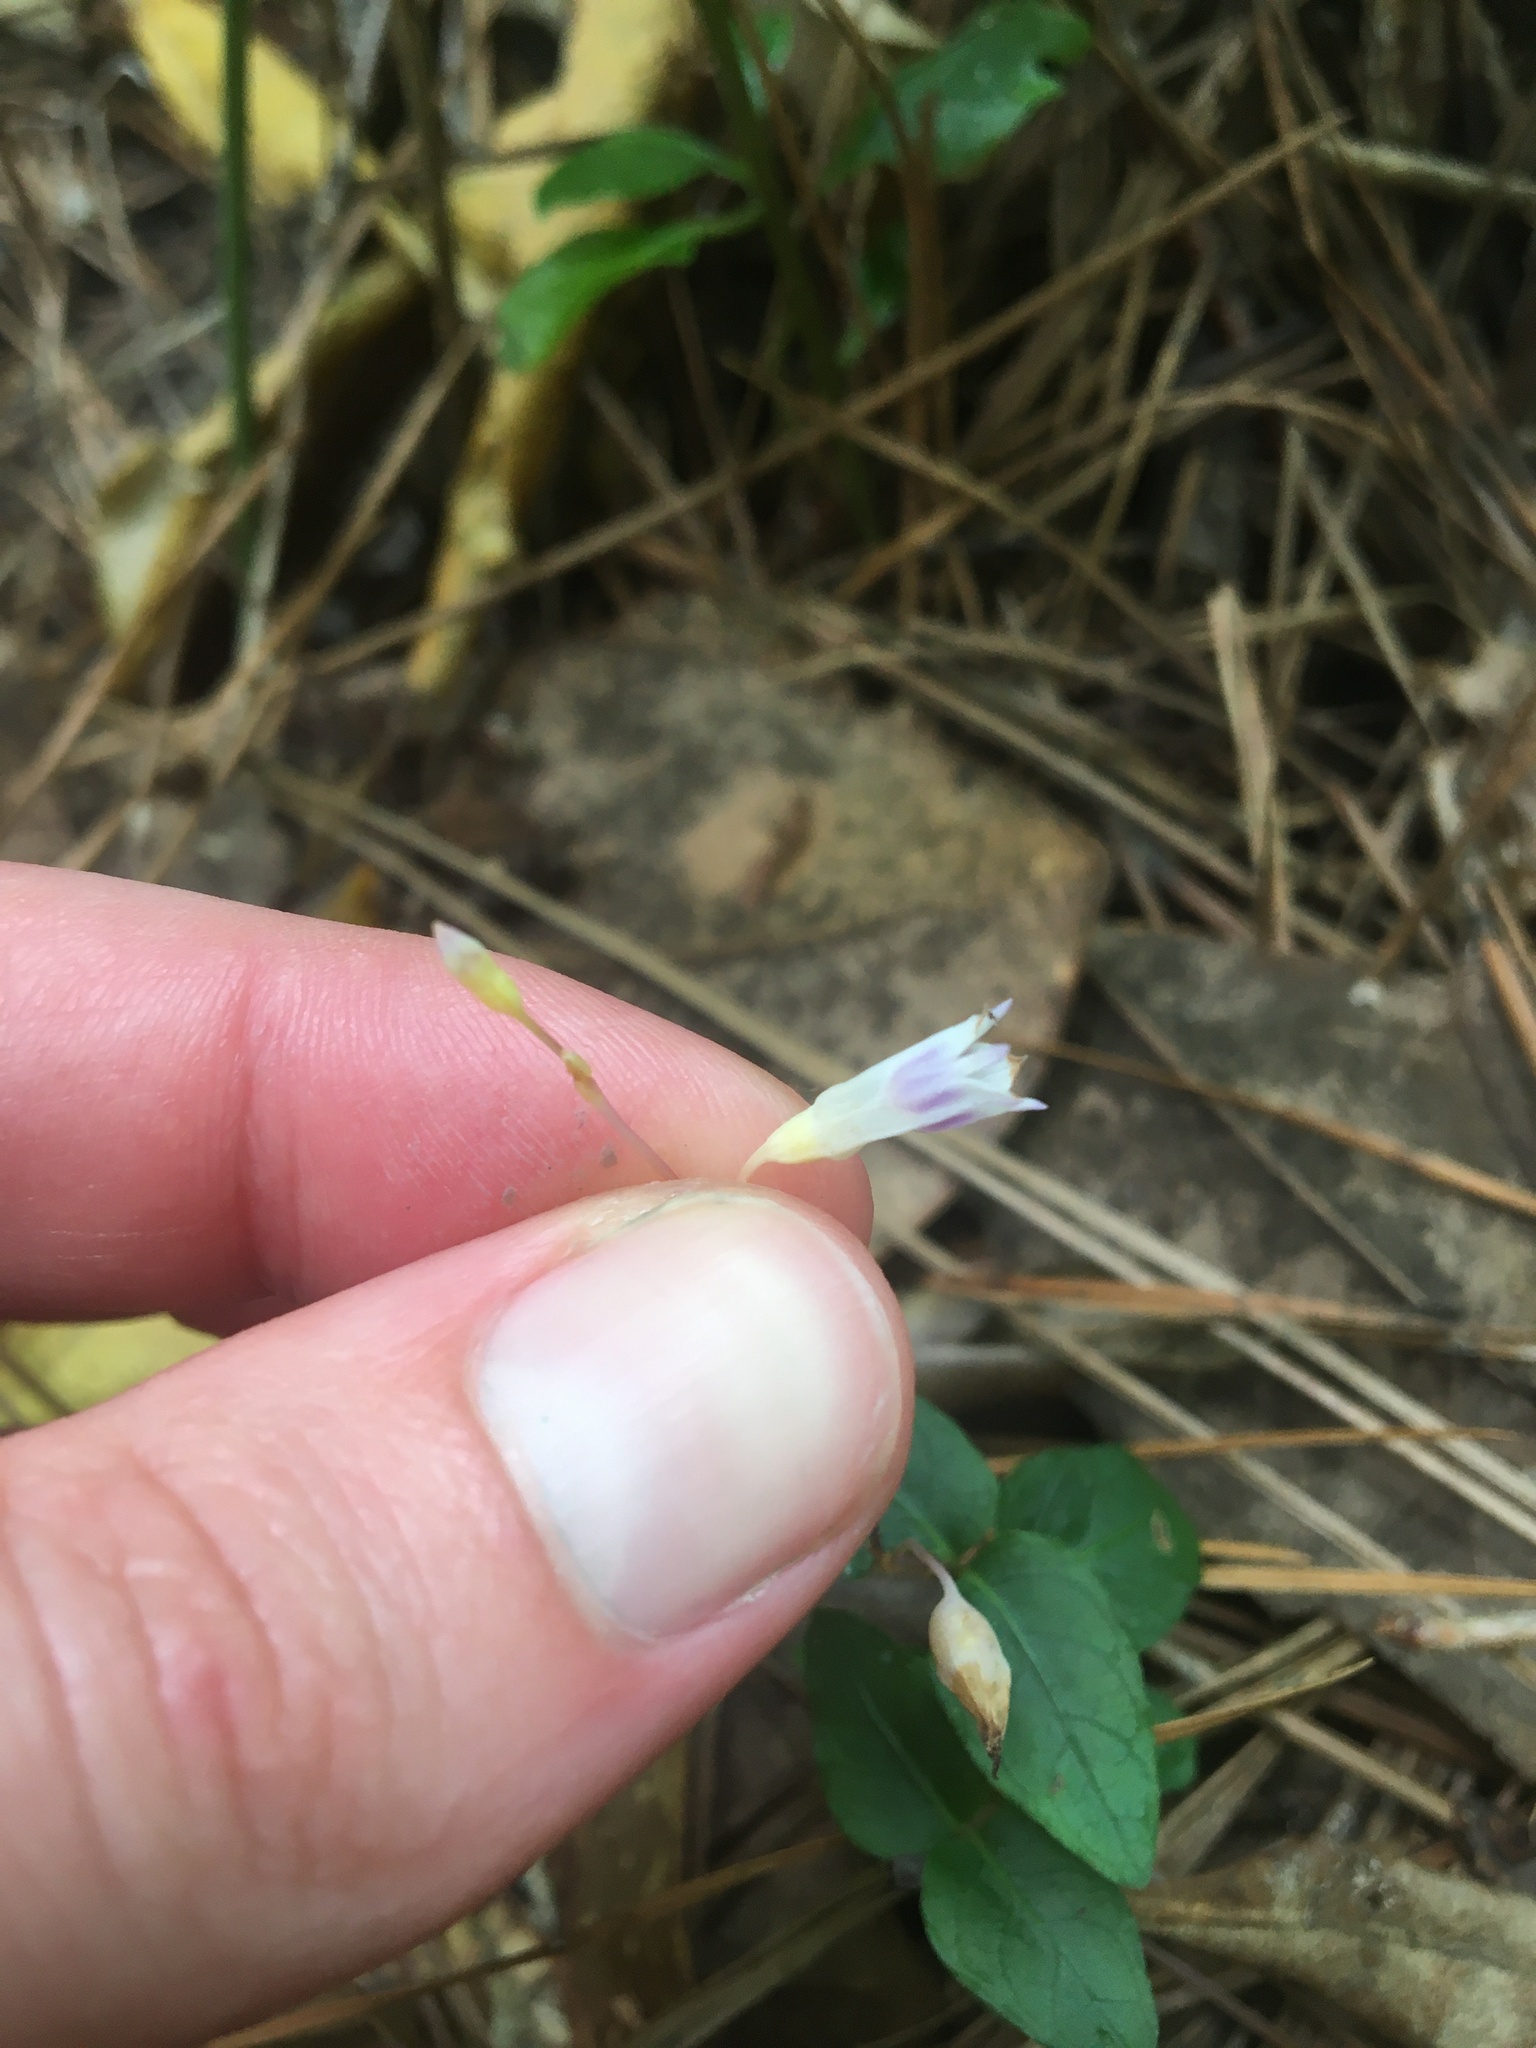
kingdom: Plantae
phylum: Tracheophyta
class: Liliopsida
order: Dioscoreales
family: Burmanniaceae
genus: Apteria
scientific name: Apteria aphylla
